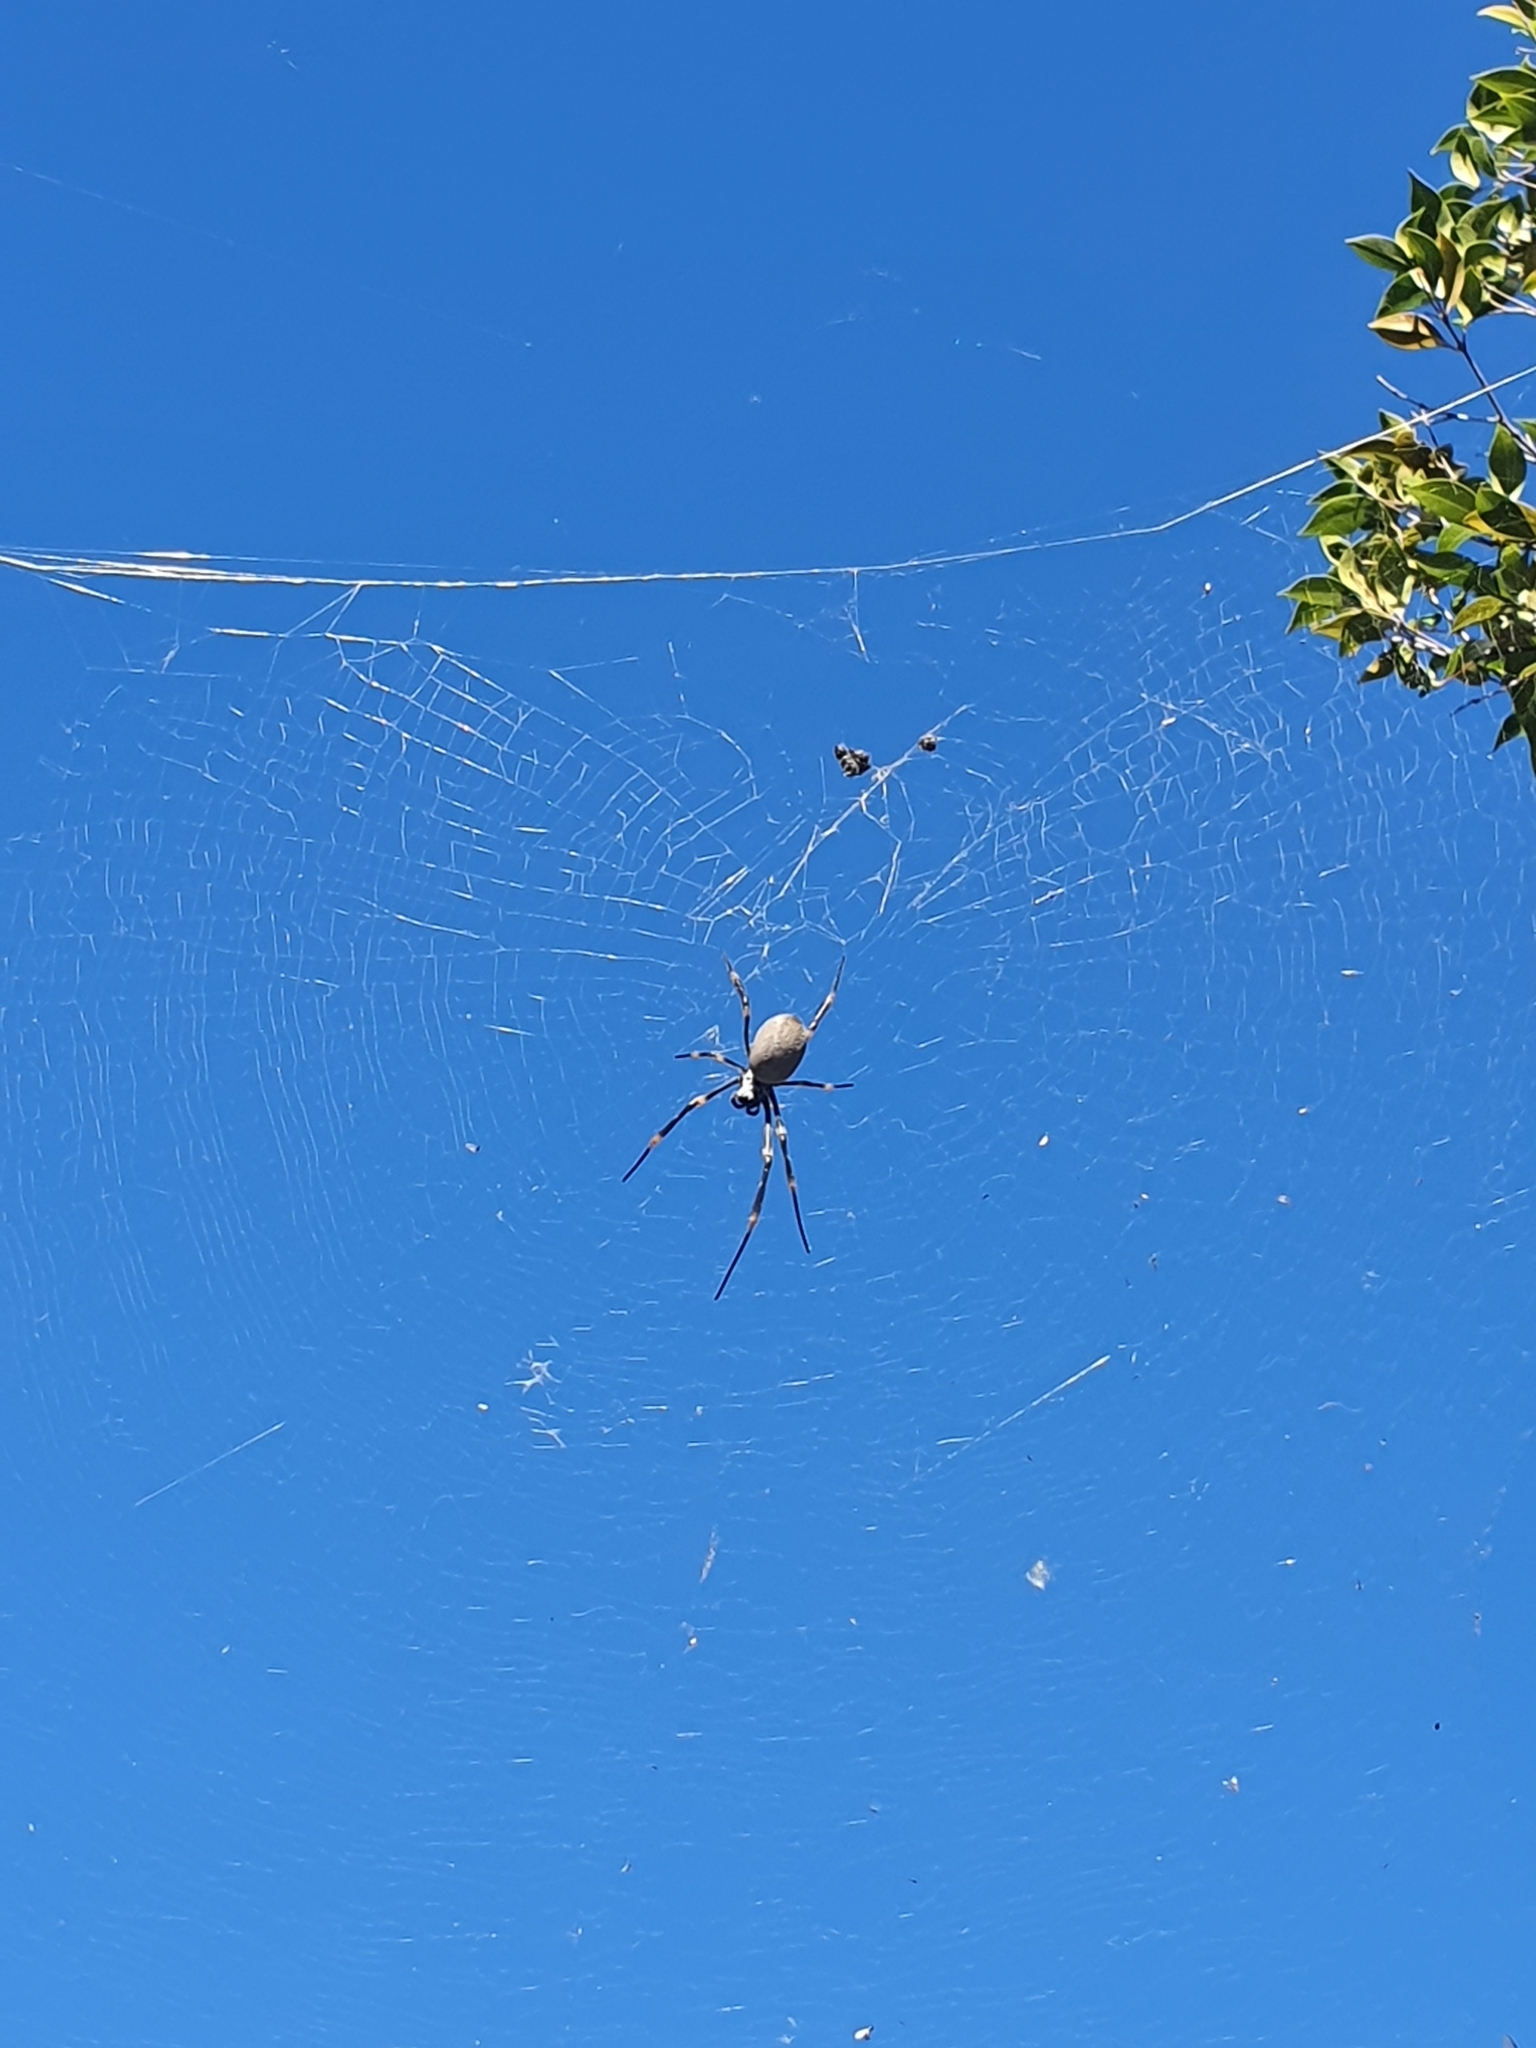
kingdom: Animalia
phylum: Arthropoda
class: Arachnida
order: Araneae
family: Araneidae
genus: Trichonephila
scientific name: Trichonephila plumipes
